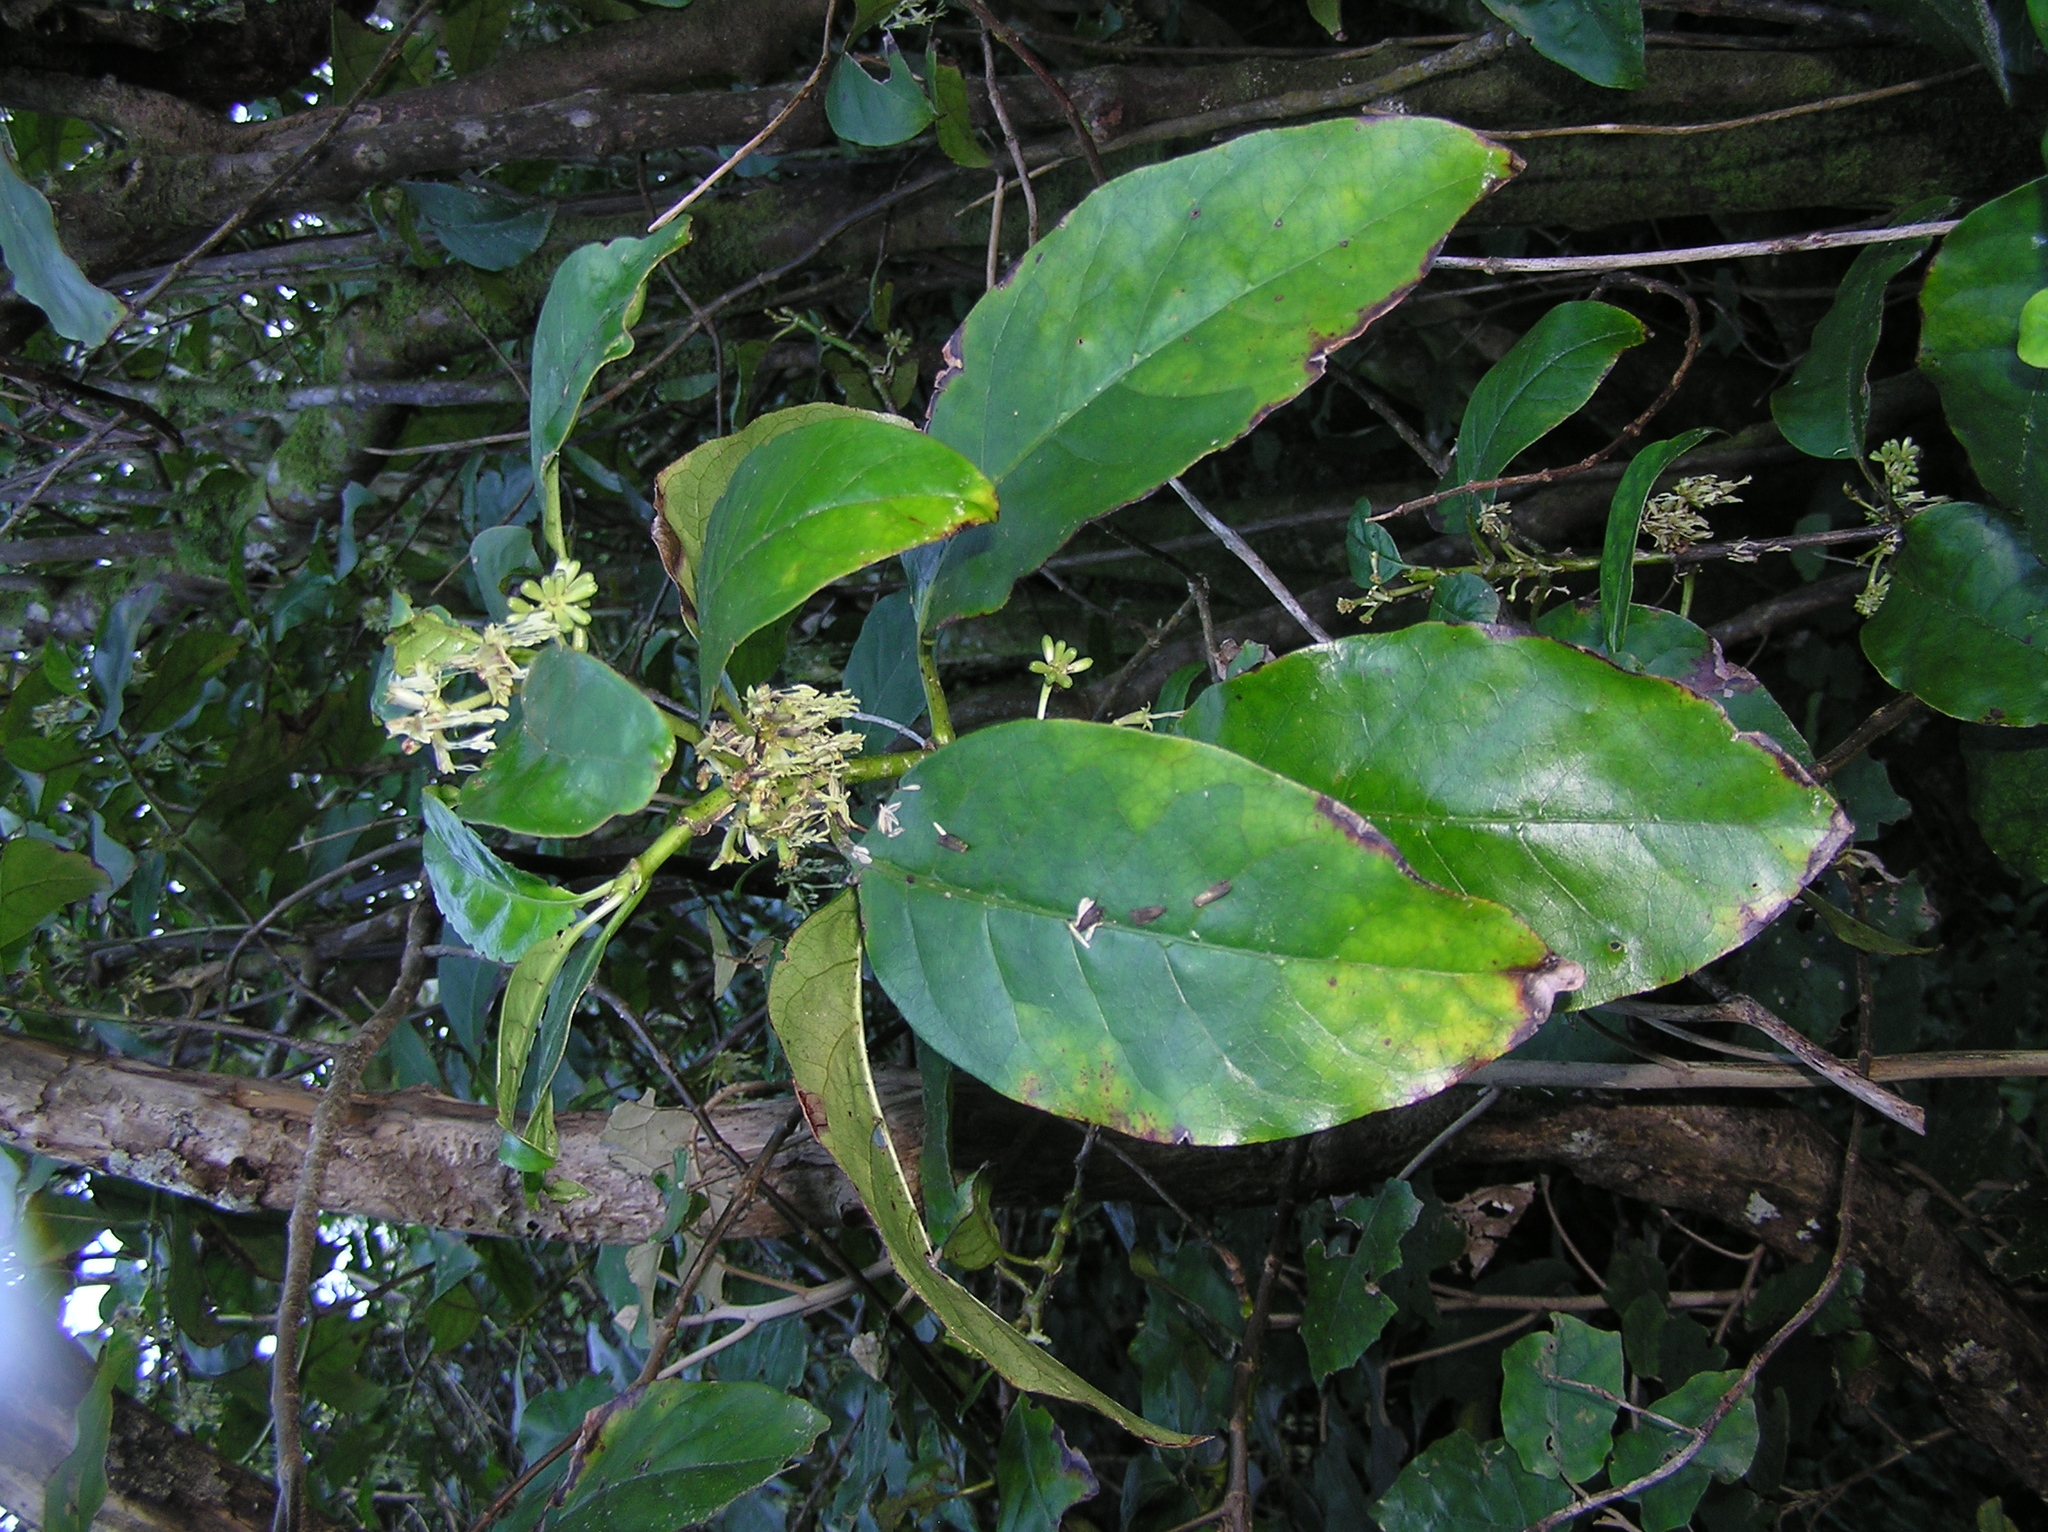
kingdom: Plantae
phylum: Tracheophyta
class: Magnoliopsida
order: Gentianales
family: Rubiaceae
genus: Coprosma
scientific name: Coprosma autumnalis
